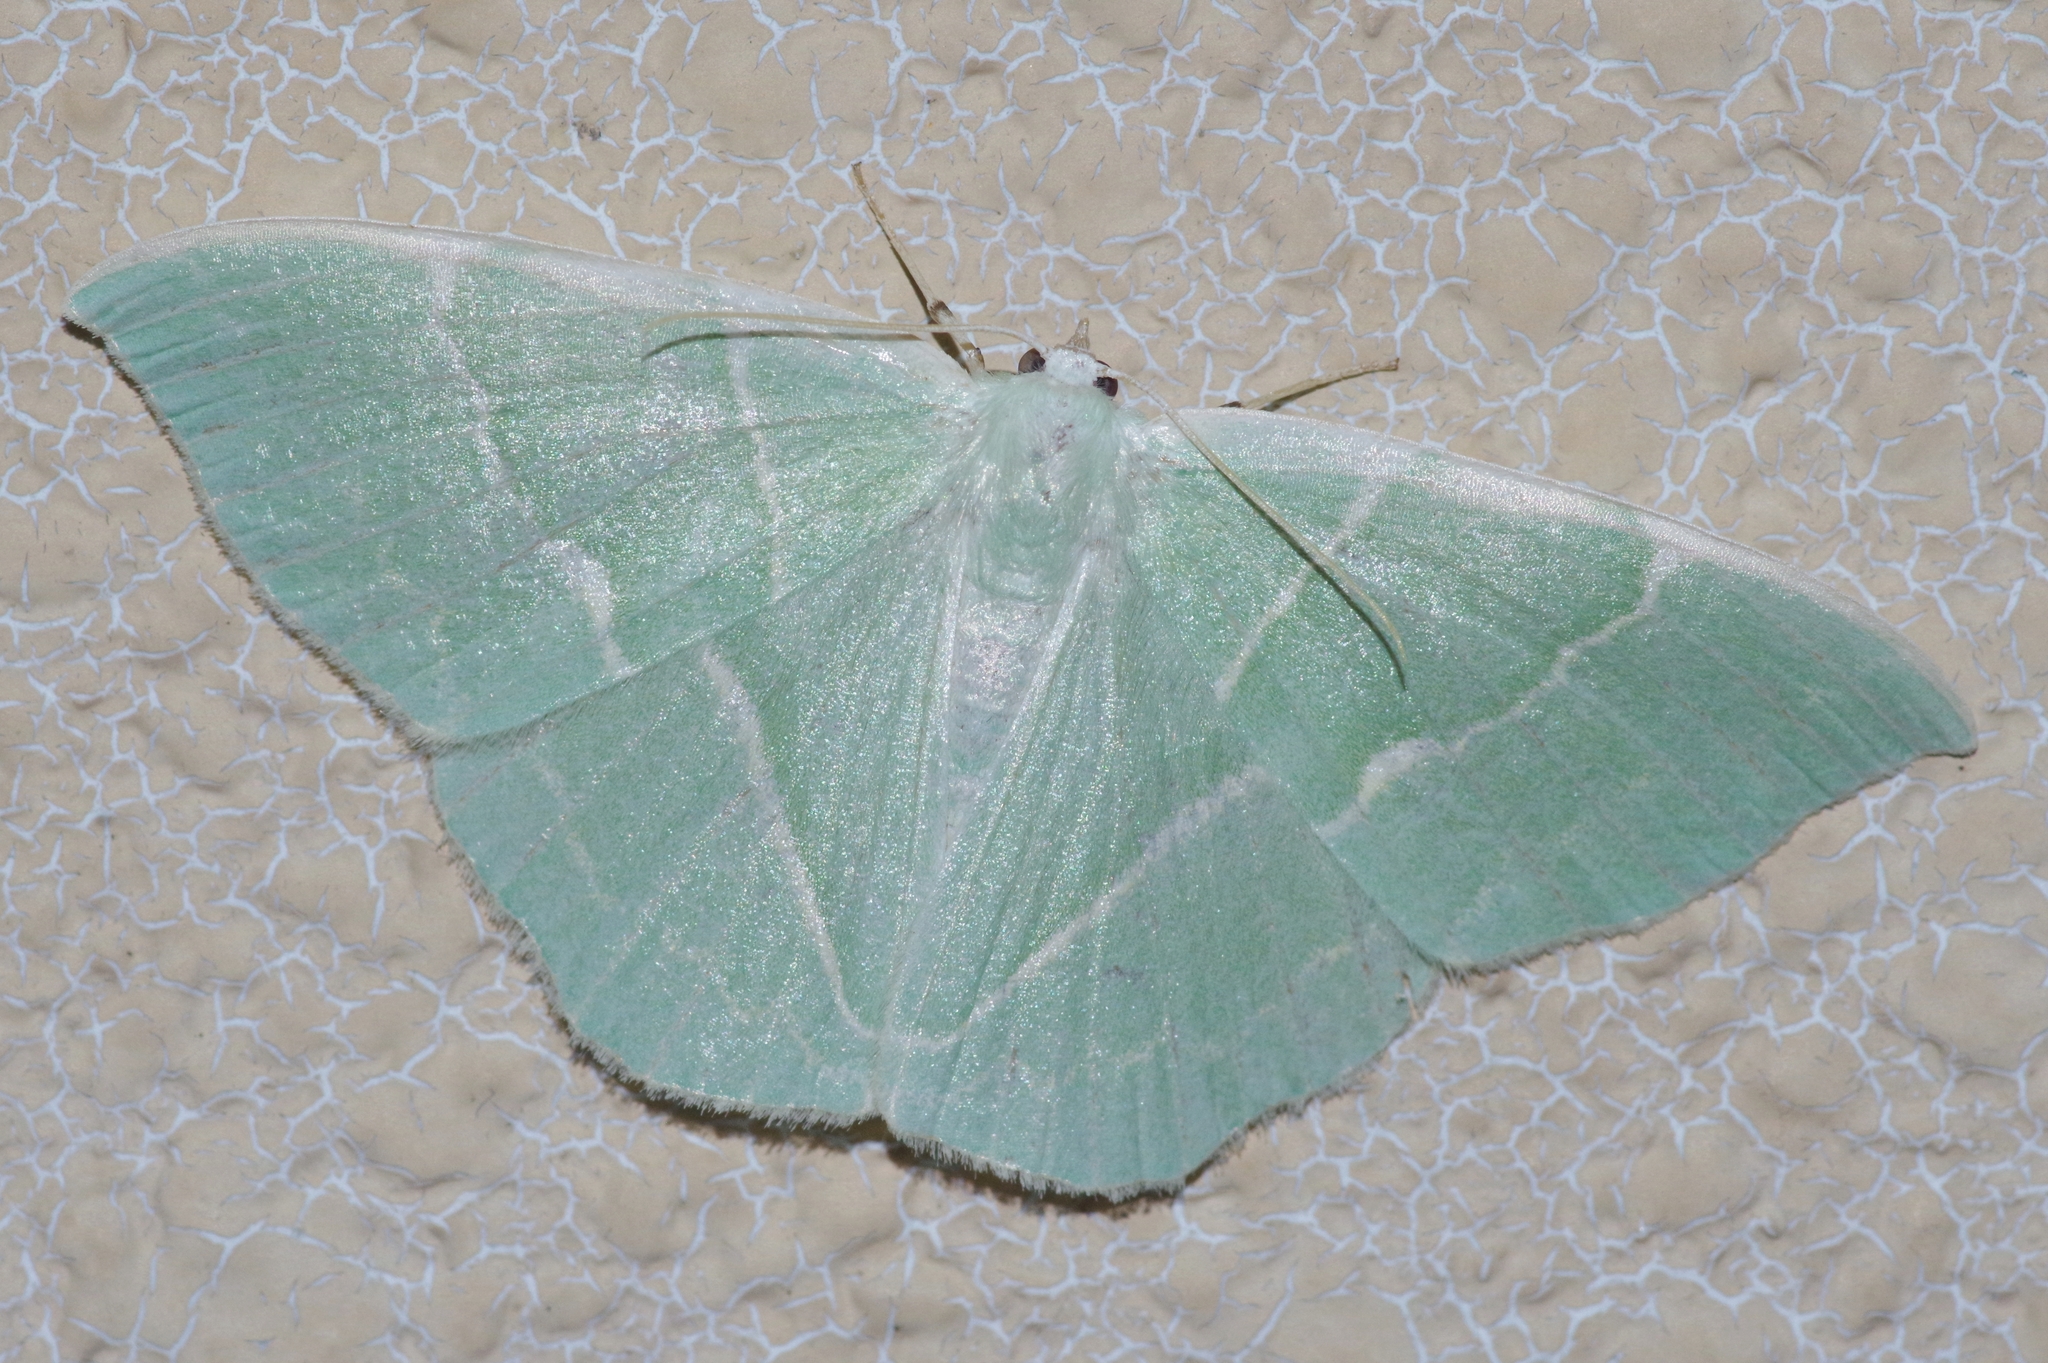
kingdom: Animalia
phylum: Arthropoda
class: Insecta
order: Lepidoptera
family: Geometridae
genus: Geometra
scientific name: Geometra glaucaria
